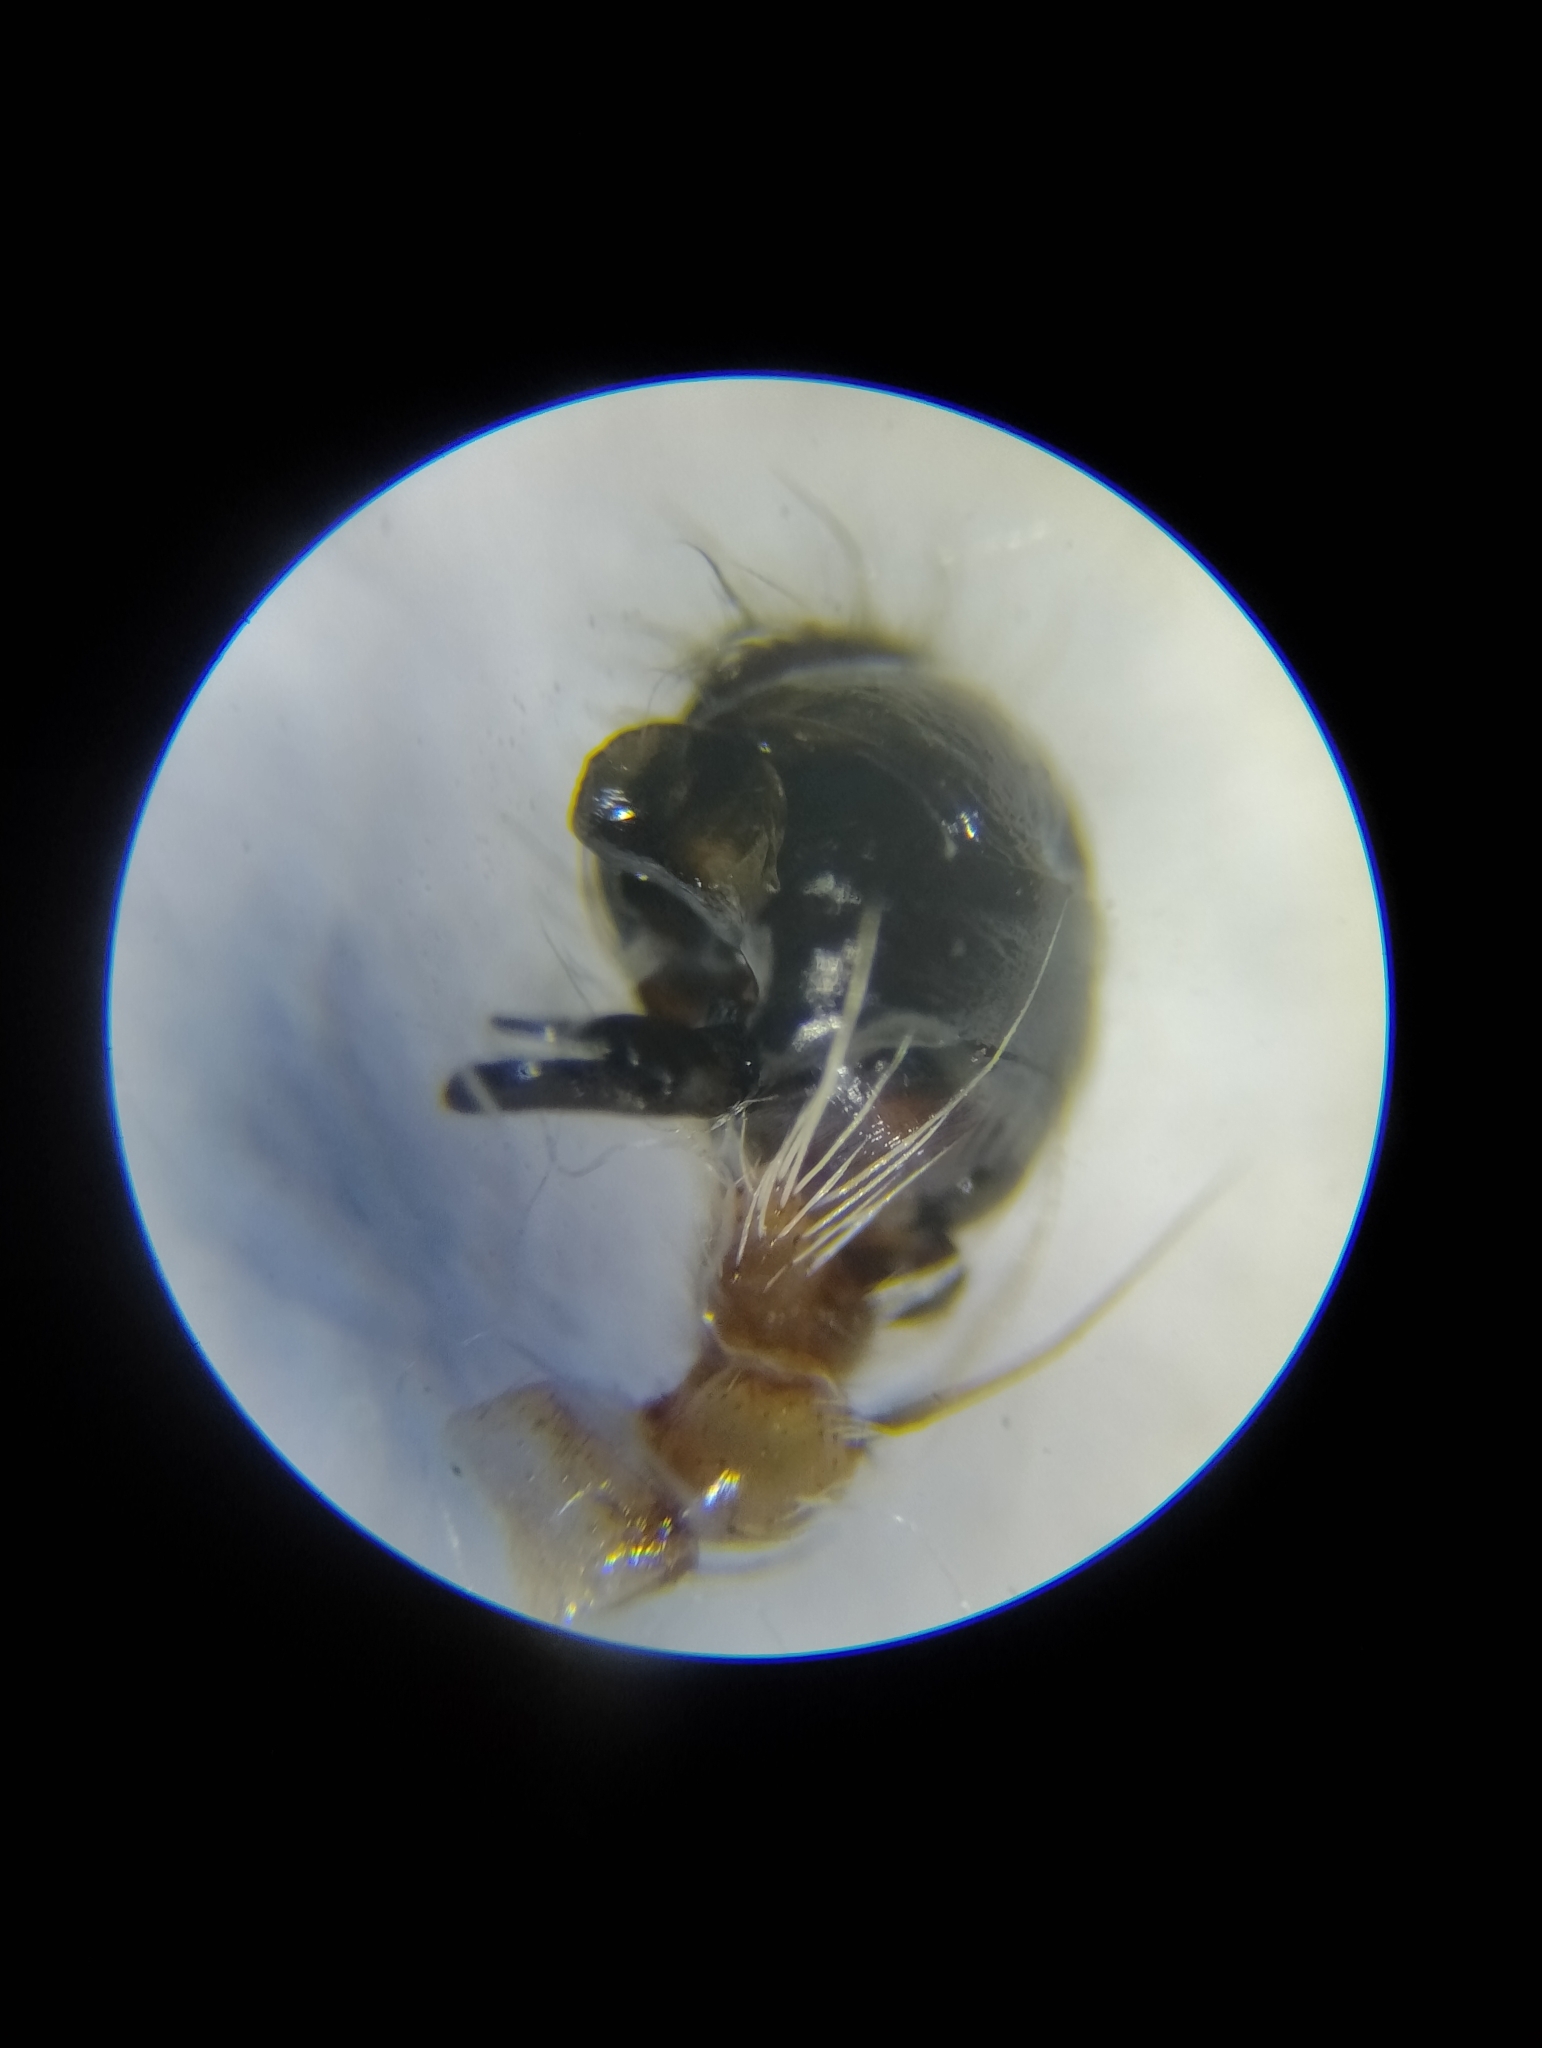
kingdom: Animalia
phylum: Arthropoda
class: Arachnida
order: Araneae
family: Araneidae
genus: Larinioides
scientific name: Larinioides suspicax
